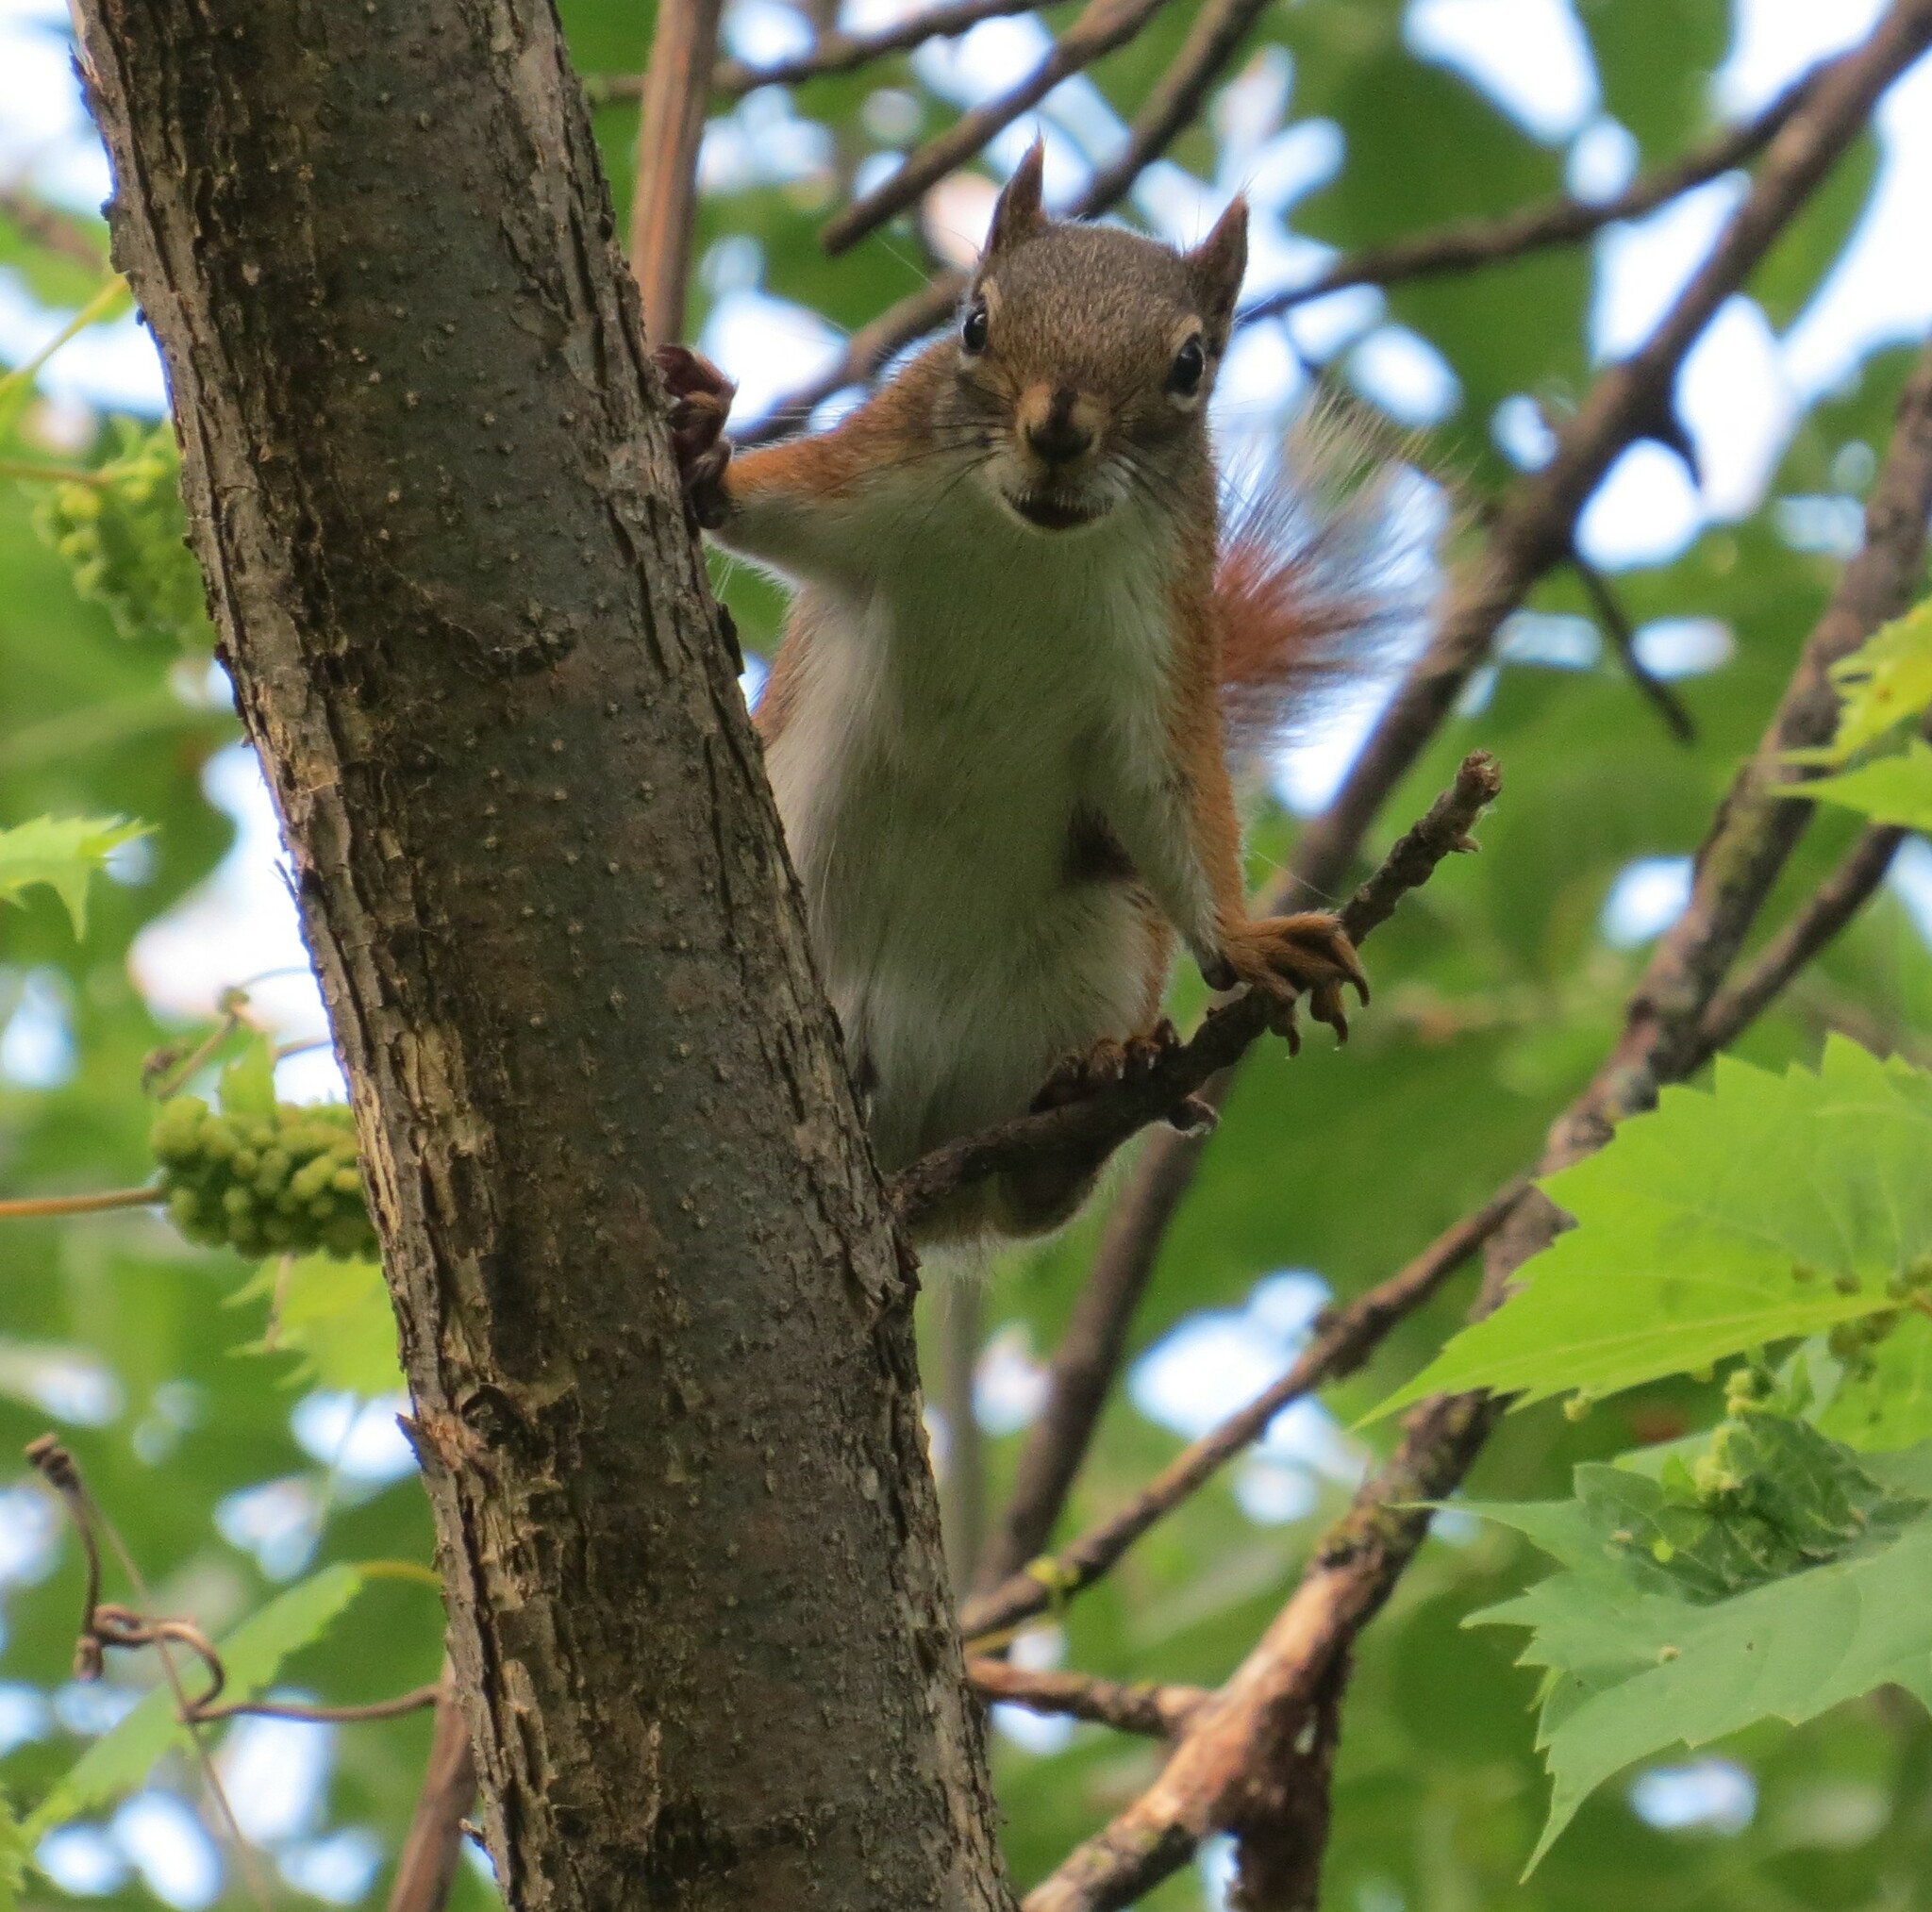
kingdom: Animalia
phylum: Chordata
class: Mammalia
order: Rodentia
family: Sciuridae
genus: Tamiasciurus
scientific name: Tamiasciurus hudsonicus
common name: Red squirrel
